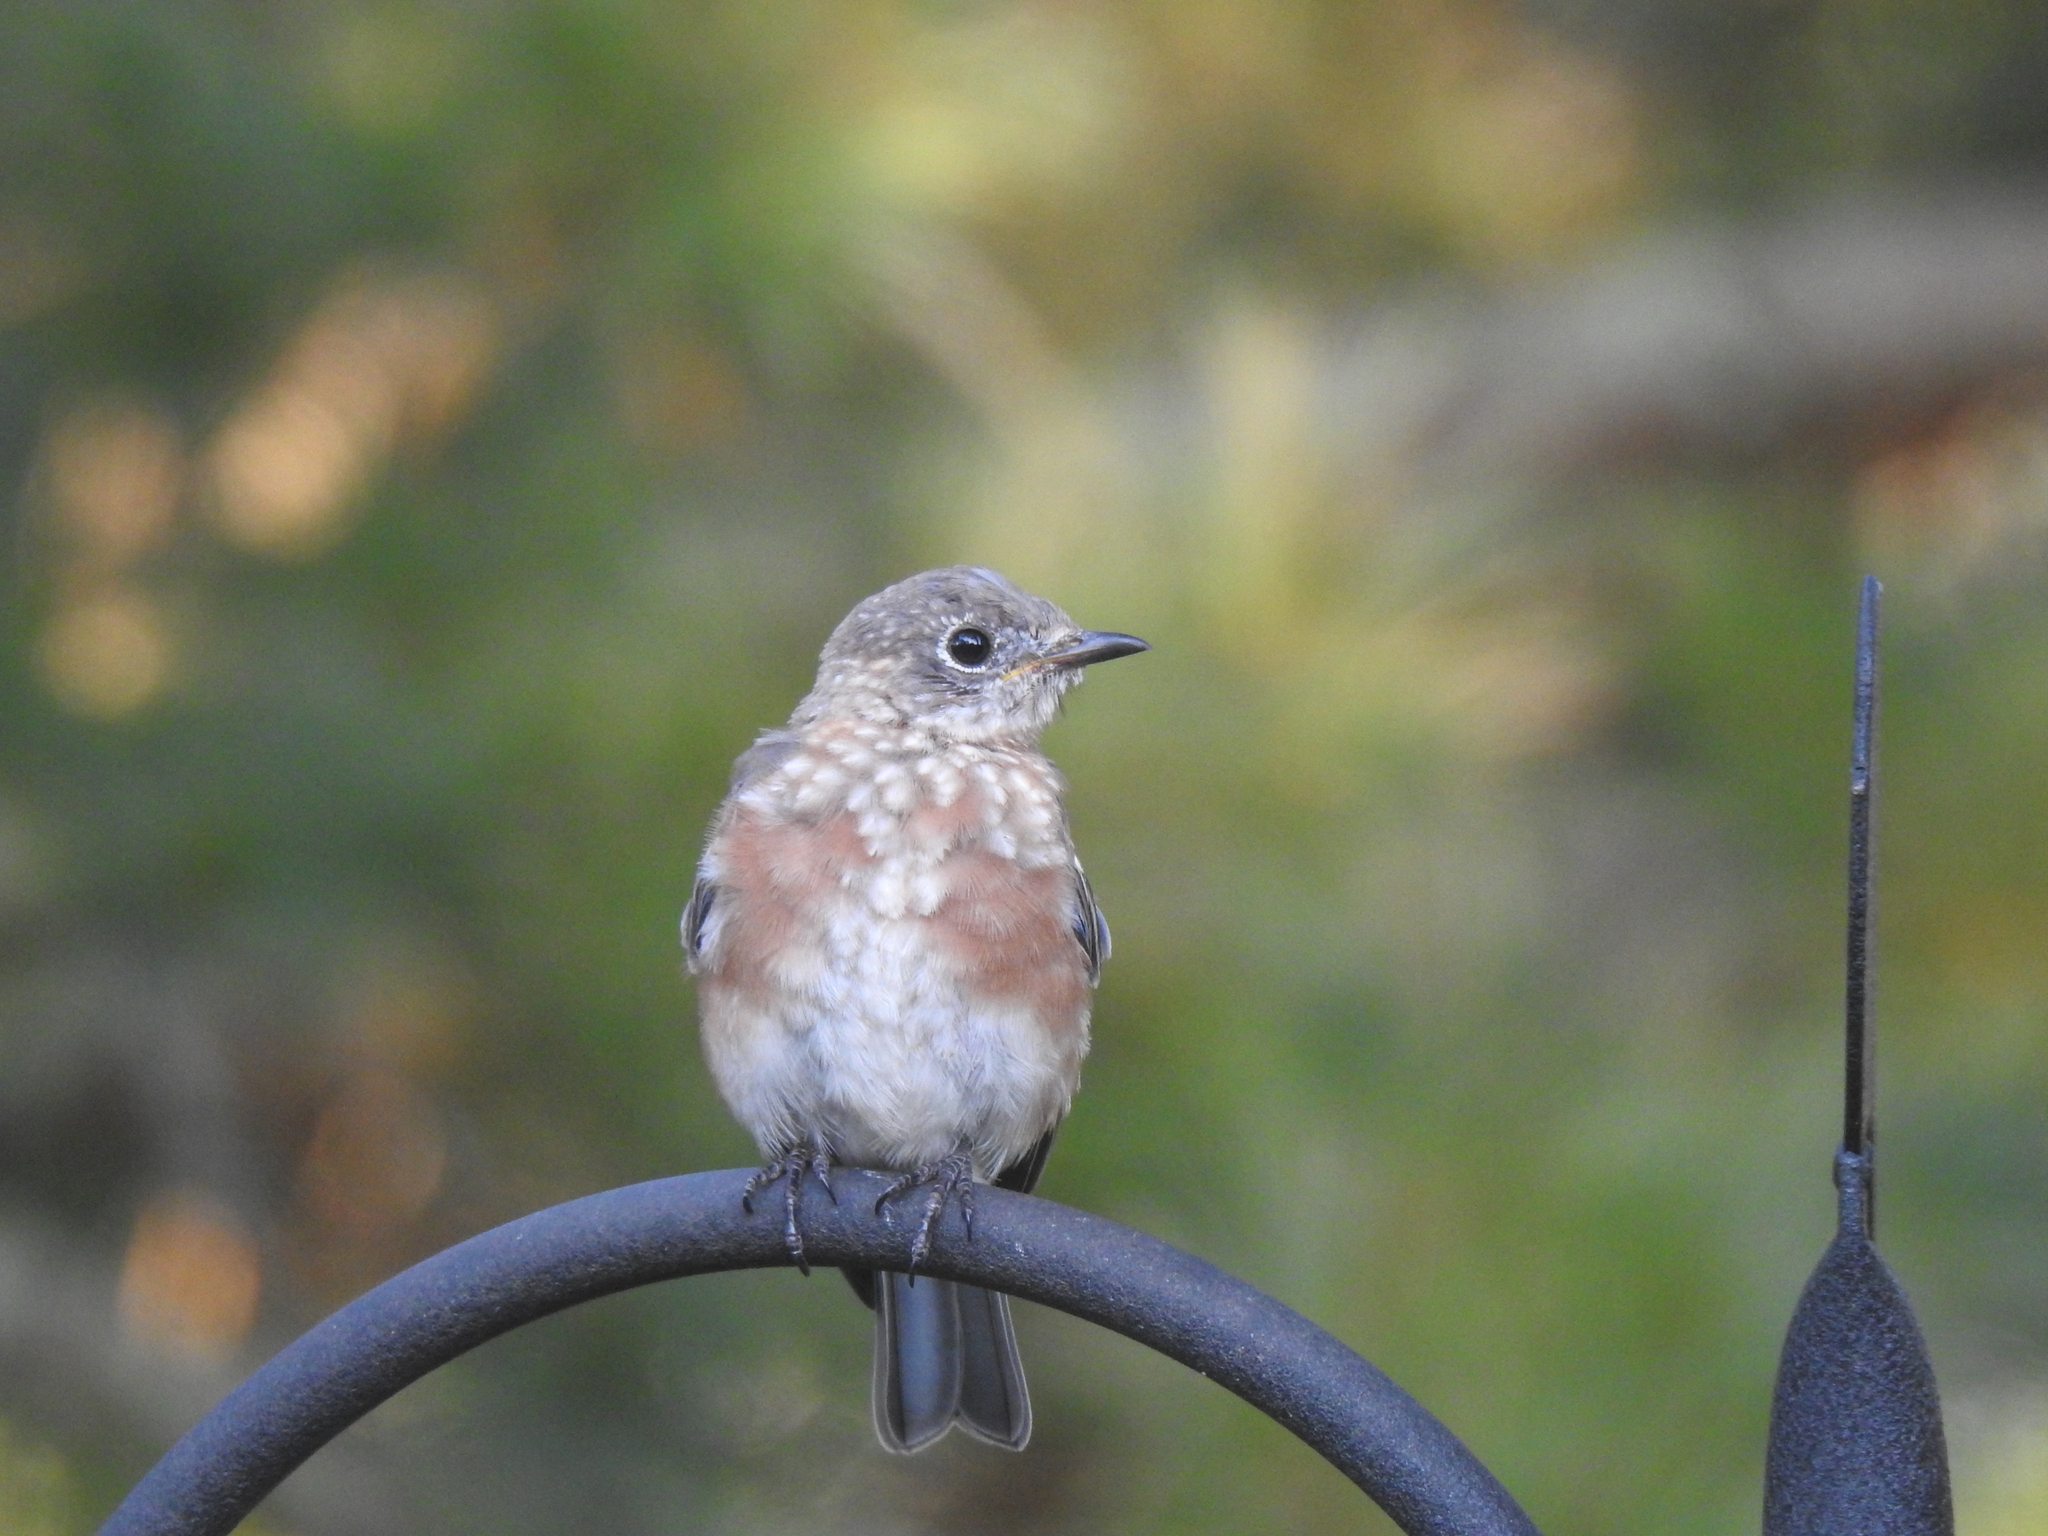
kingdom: Animalia
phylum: Chordata
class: Aves
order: Passeriformes
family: Turdidae
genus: Sialia
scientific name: Sialia sialis
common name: Eastern bluebird
